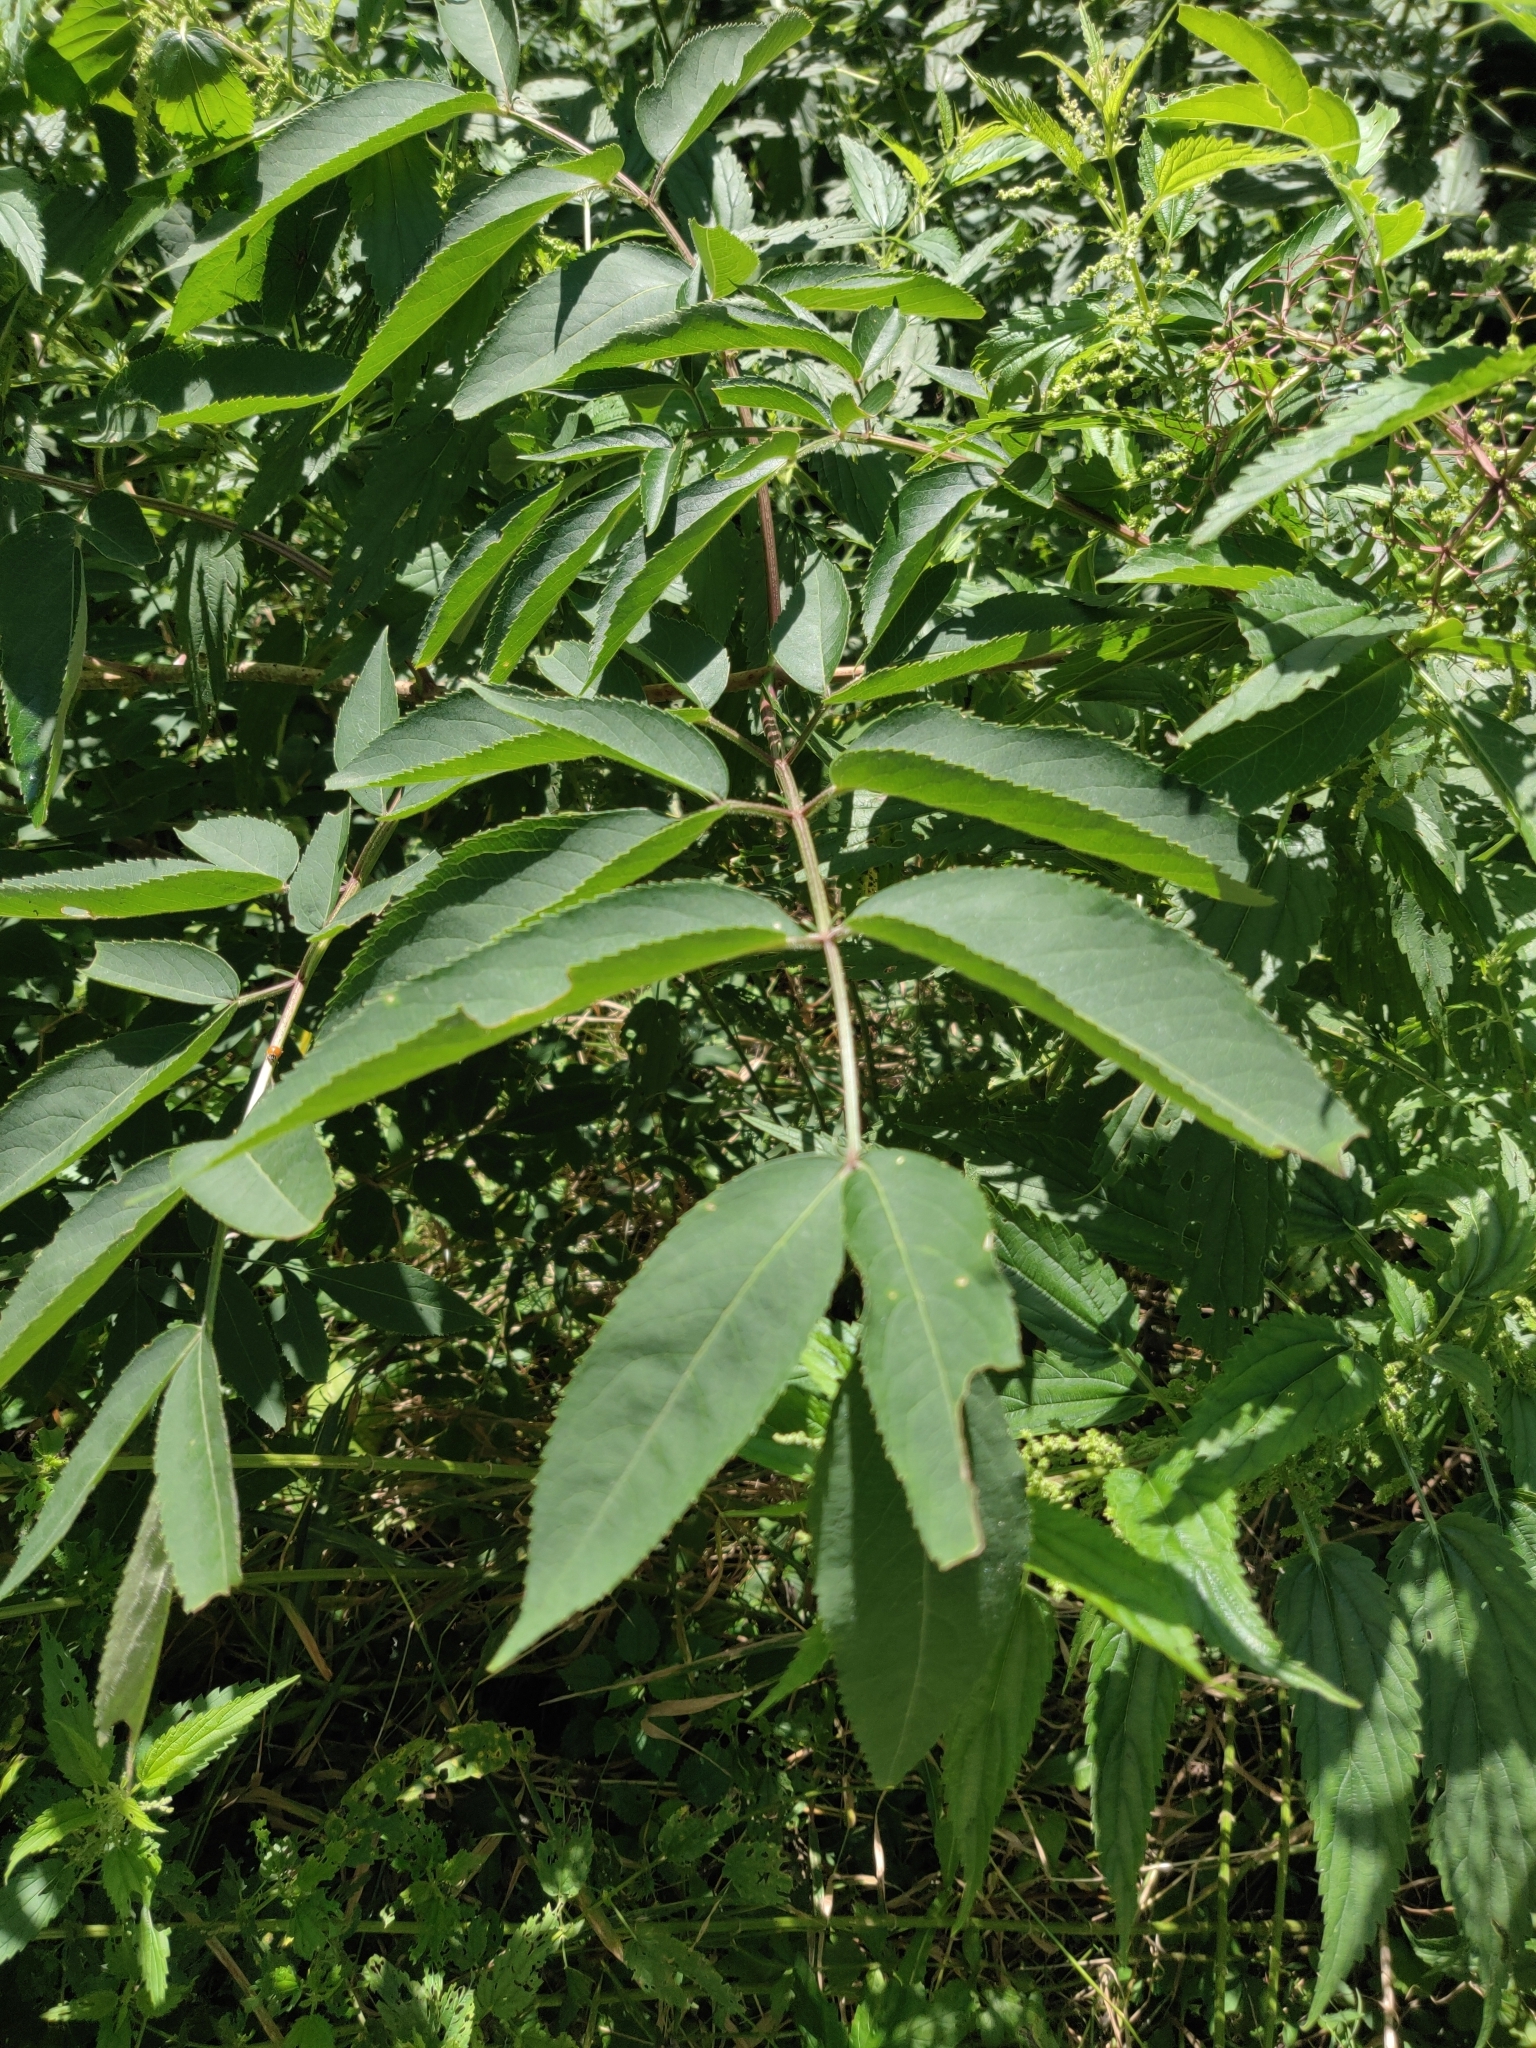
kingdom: Plantae
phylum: Tracheophyta
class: Magnoliopsida
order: Dipsacales
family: Viburnaceae
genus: Sambucus
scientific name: Sambucus canadensis
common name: American elder
